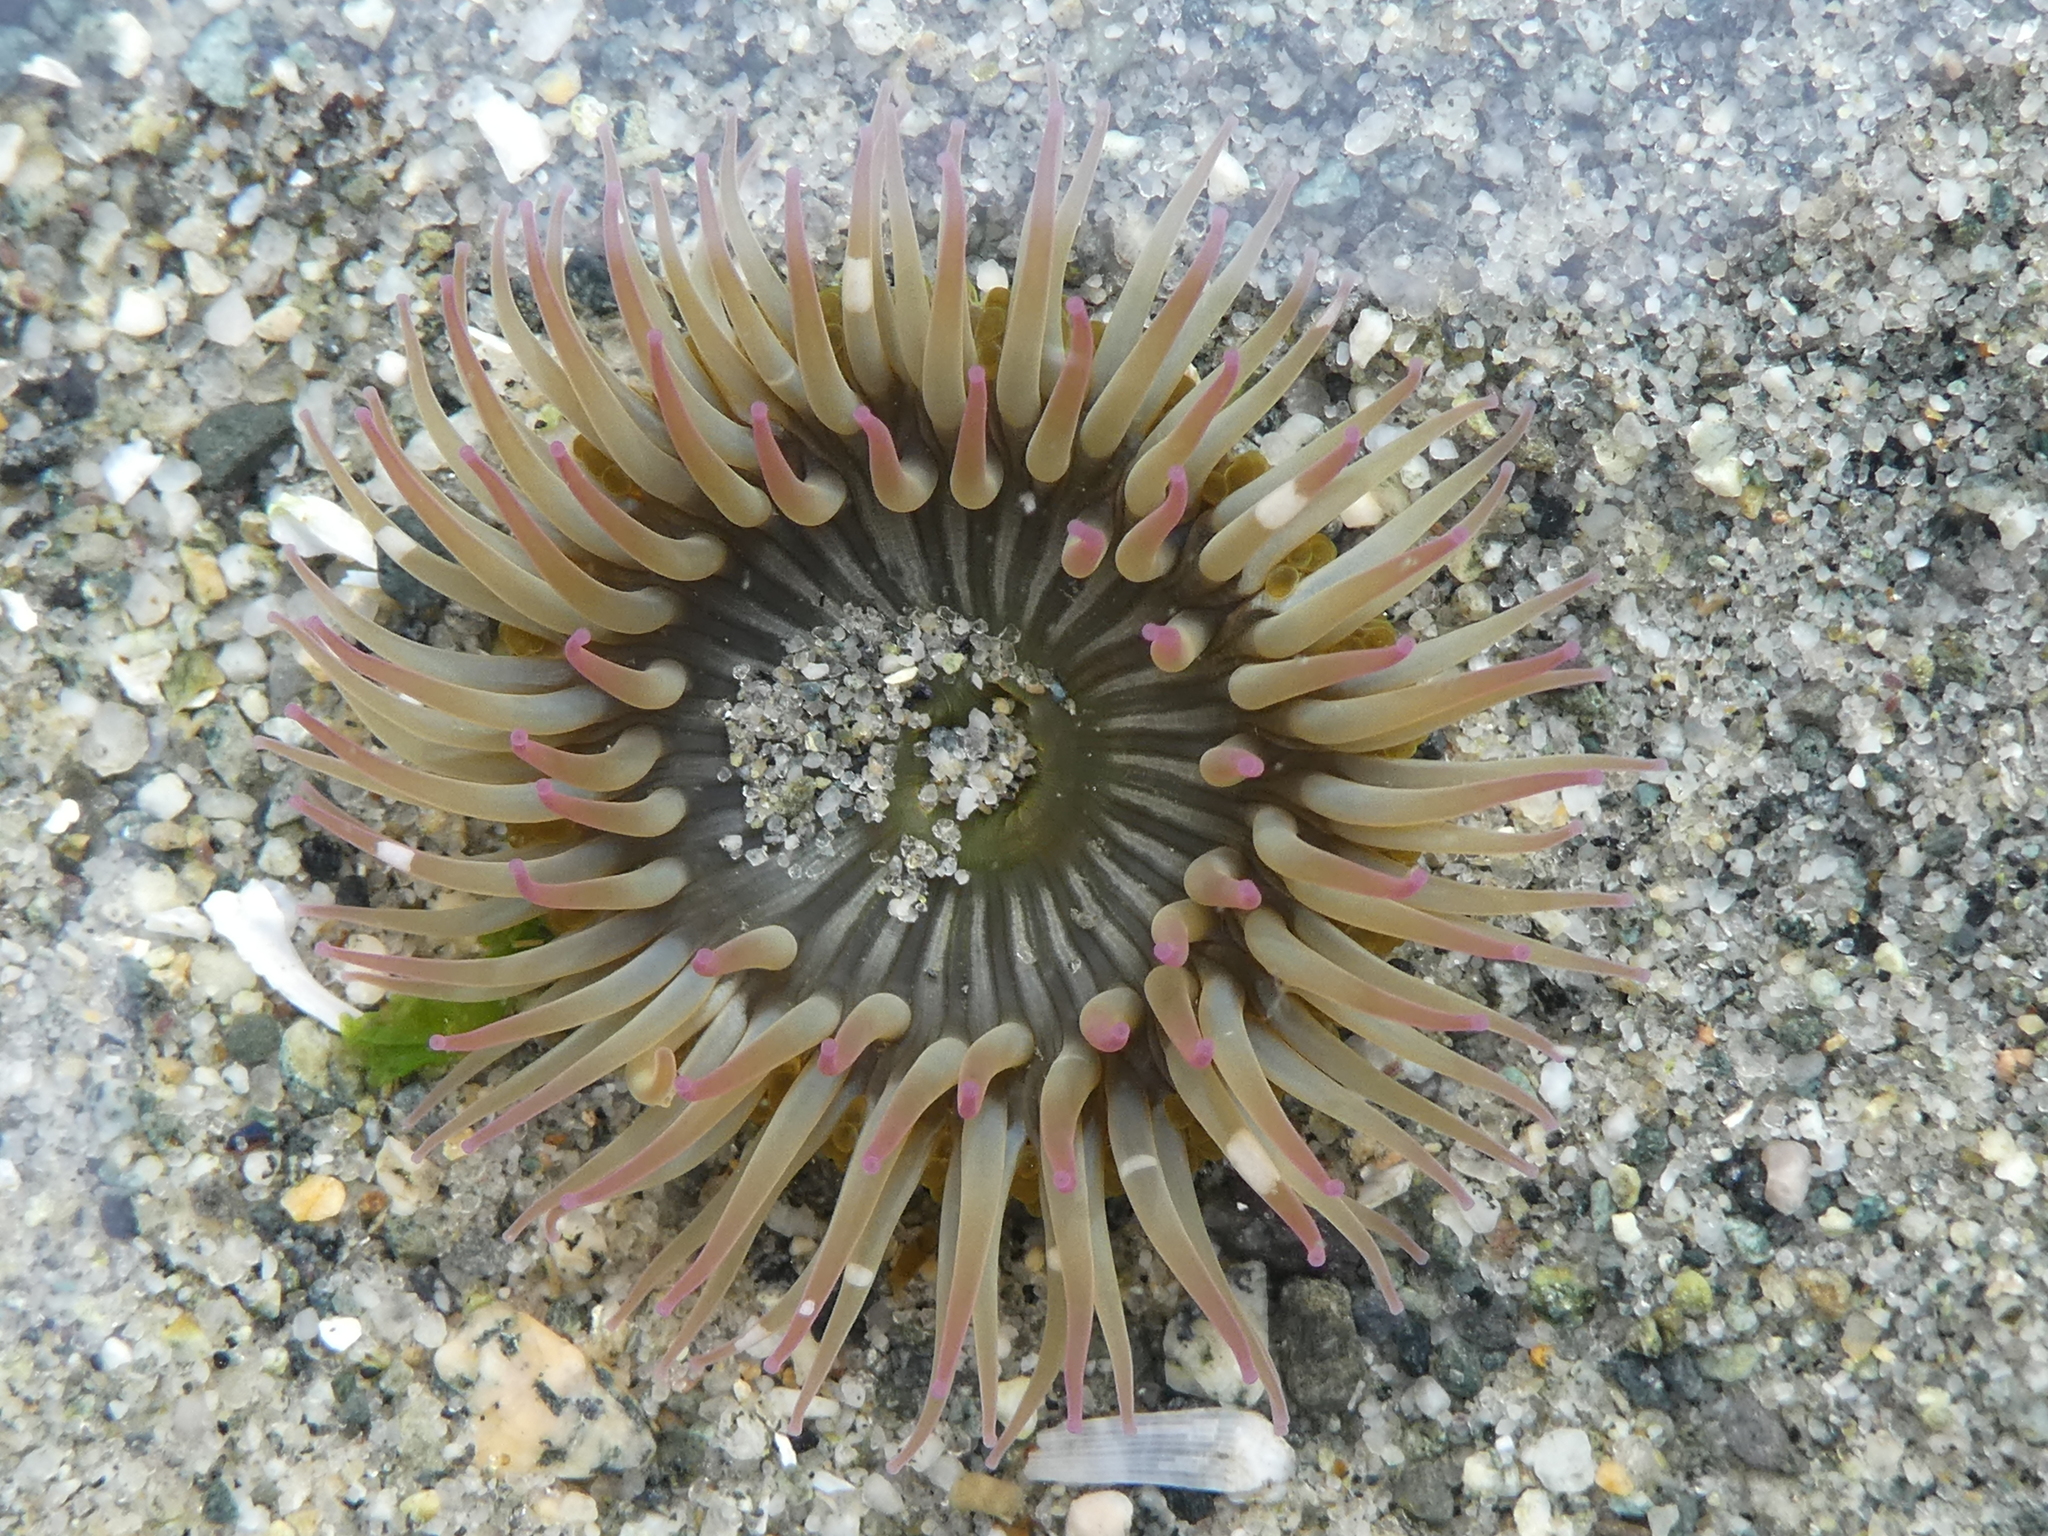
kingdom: Animalia
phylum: Cnidaria
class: Anthozoa
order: Actiniaria
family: Actiniidae
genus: Anthopleura
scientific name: Anthopleura elegantissima
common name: Clonal anemone
